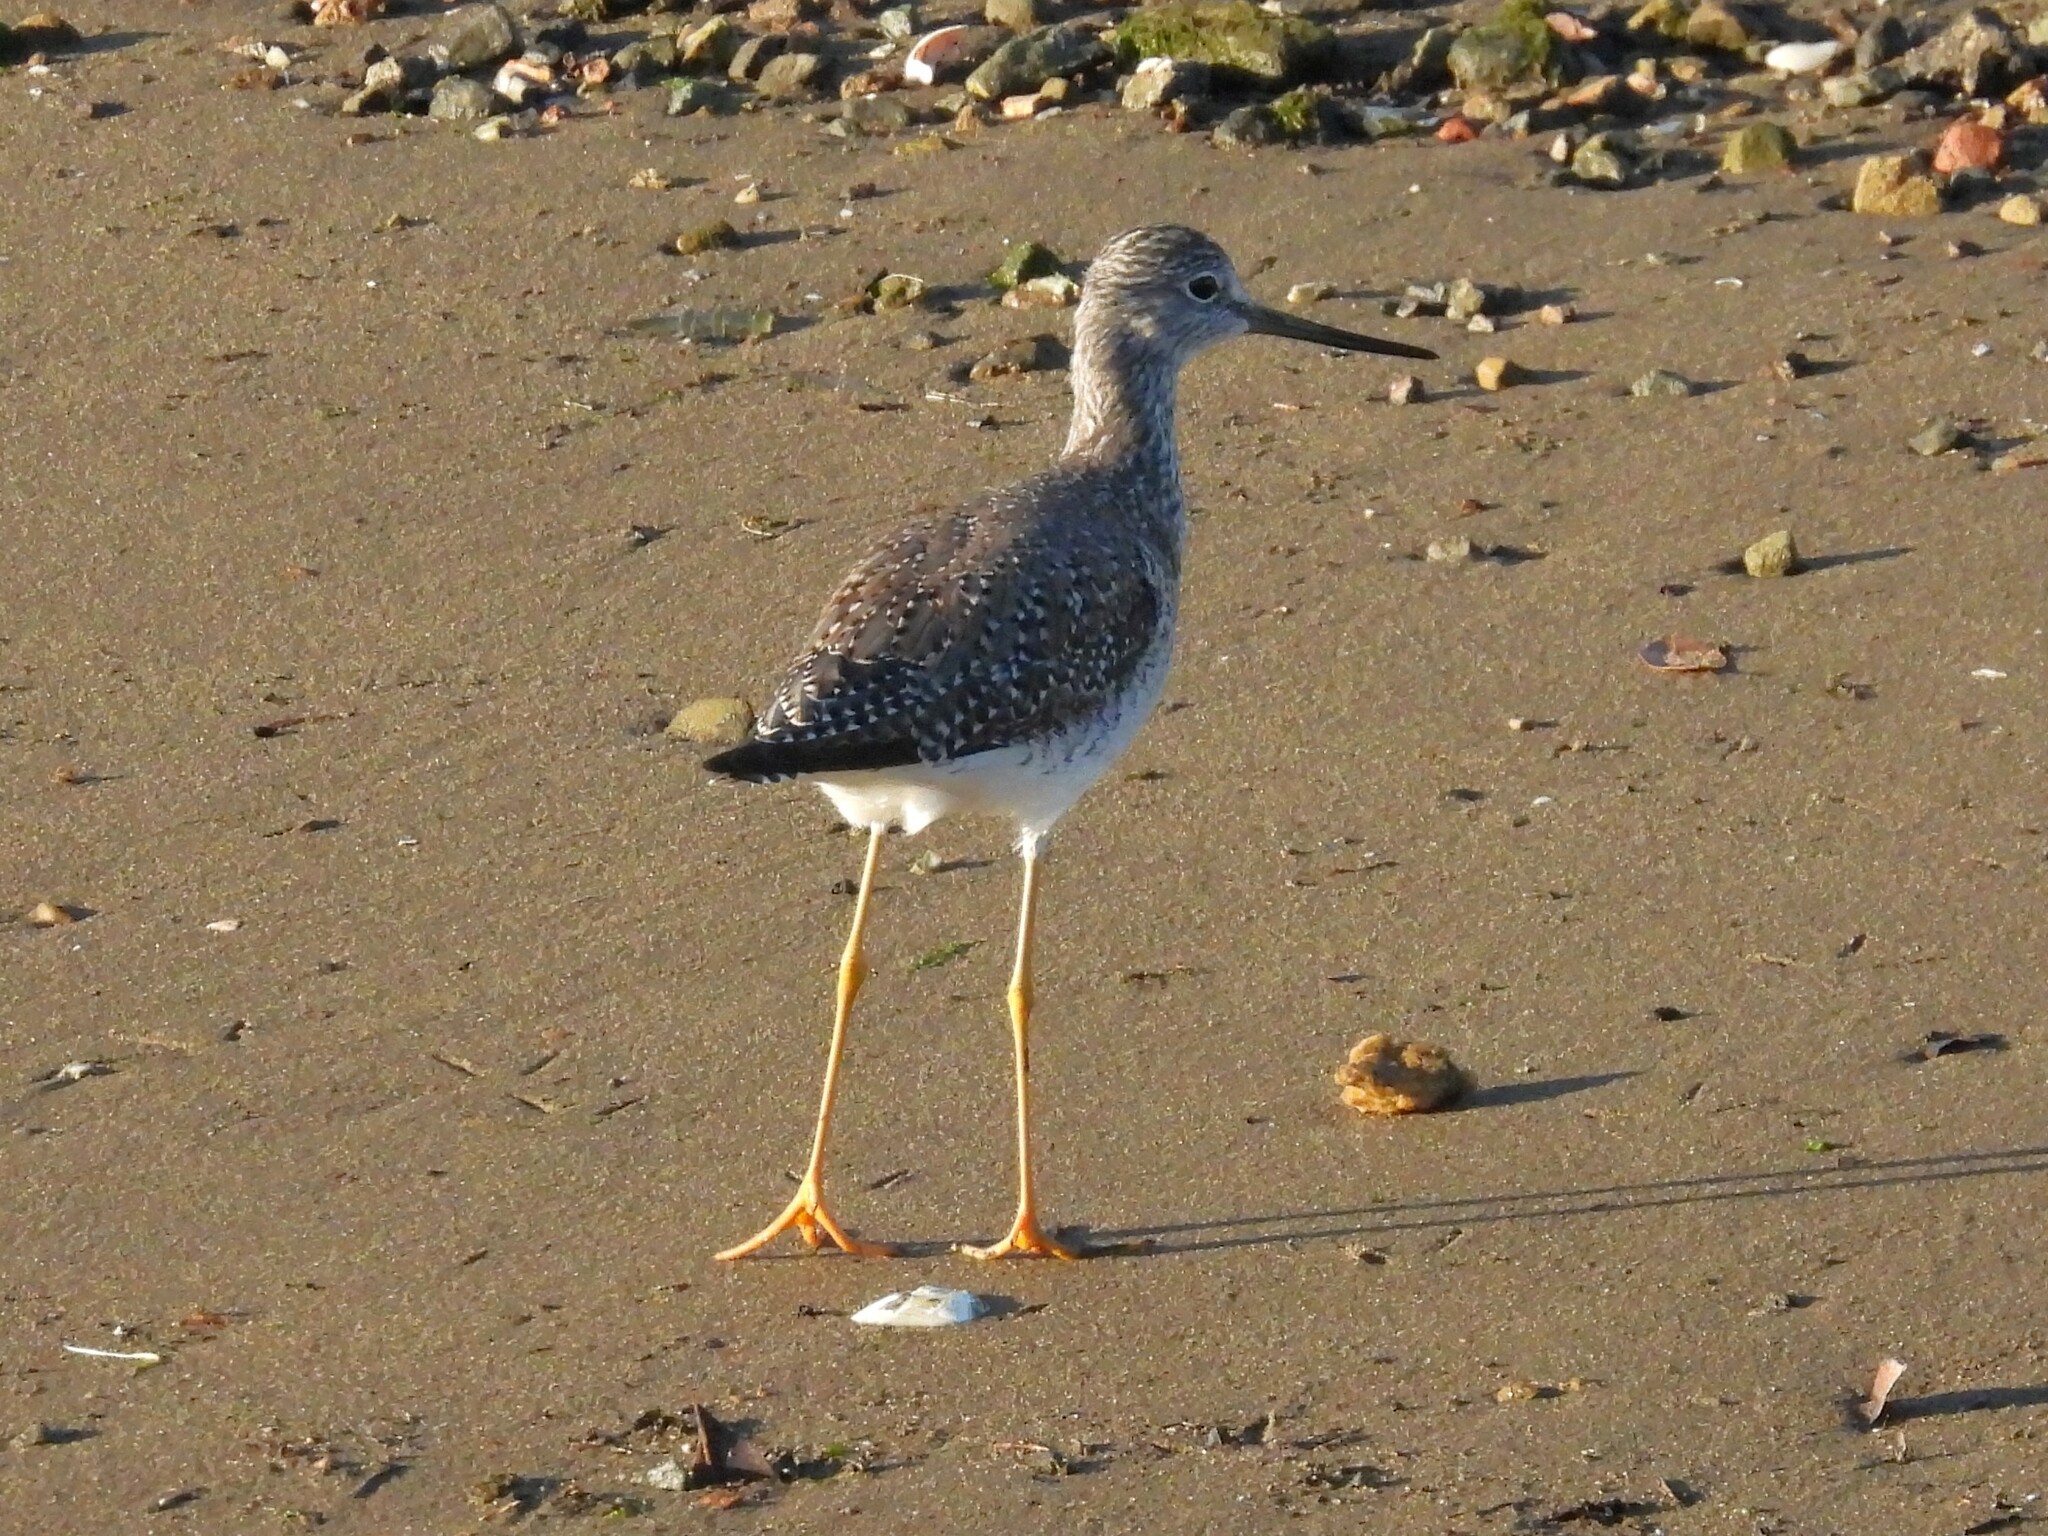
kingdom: Animalia
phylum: Chordata
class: Aves
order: Charadriiformes
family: Scolopacidae
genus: Tringa
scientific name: Tringa melanoleuca
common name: Greater yellowlegs
